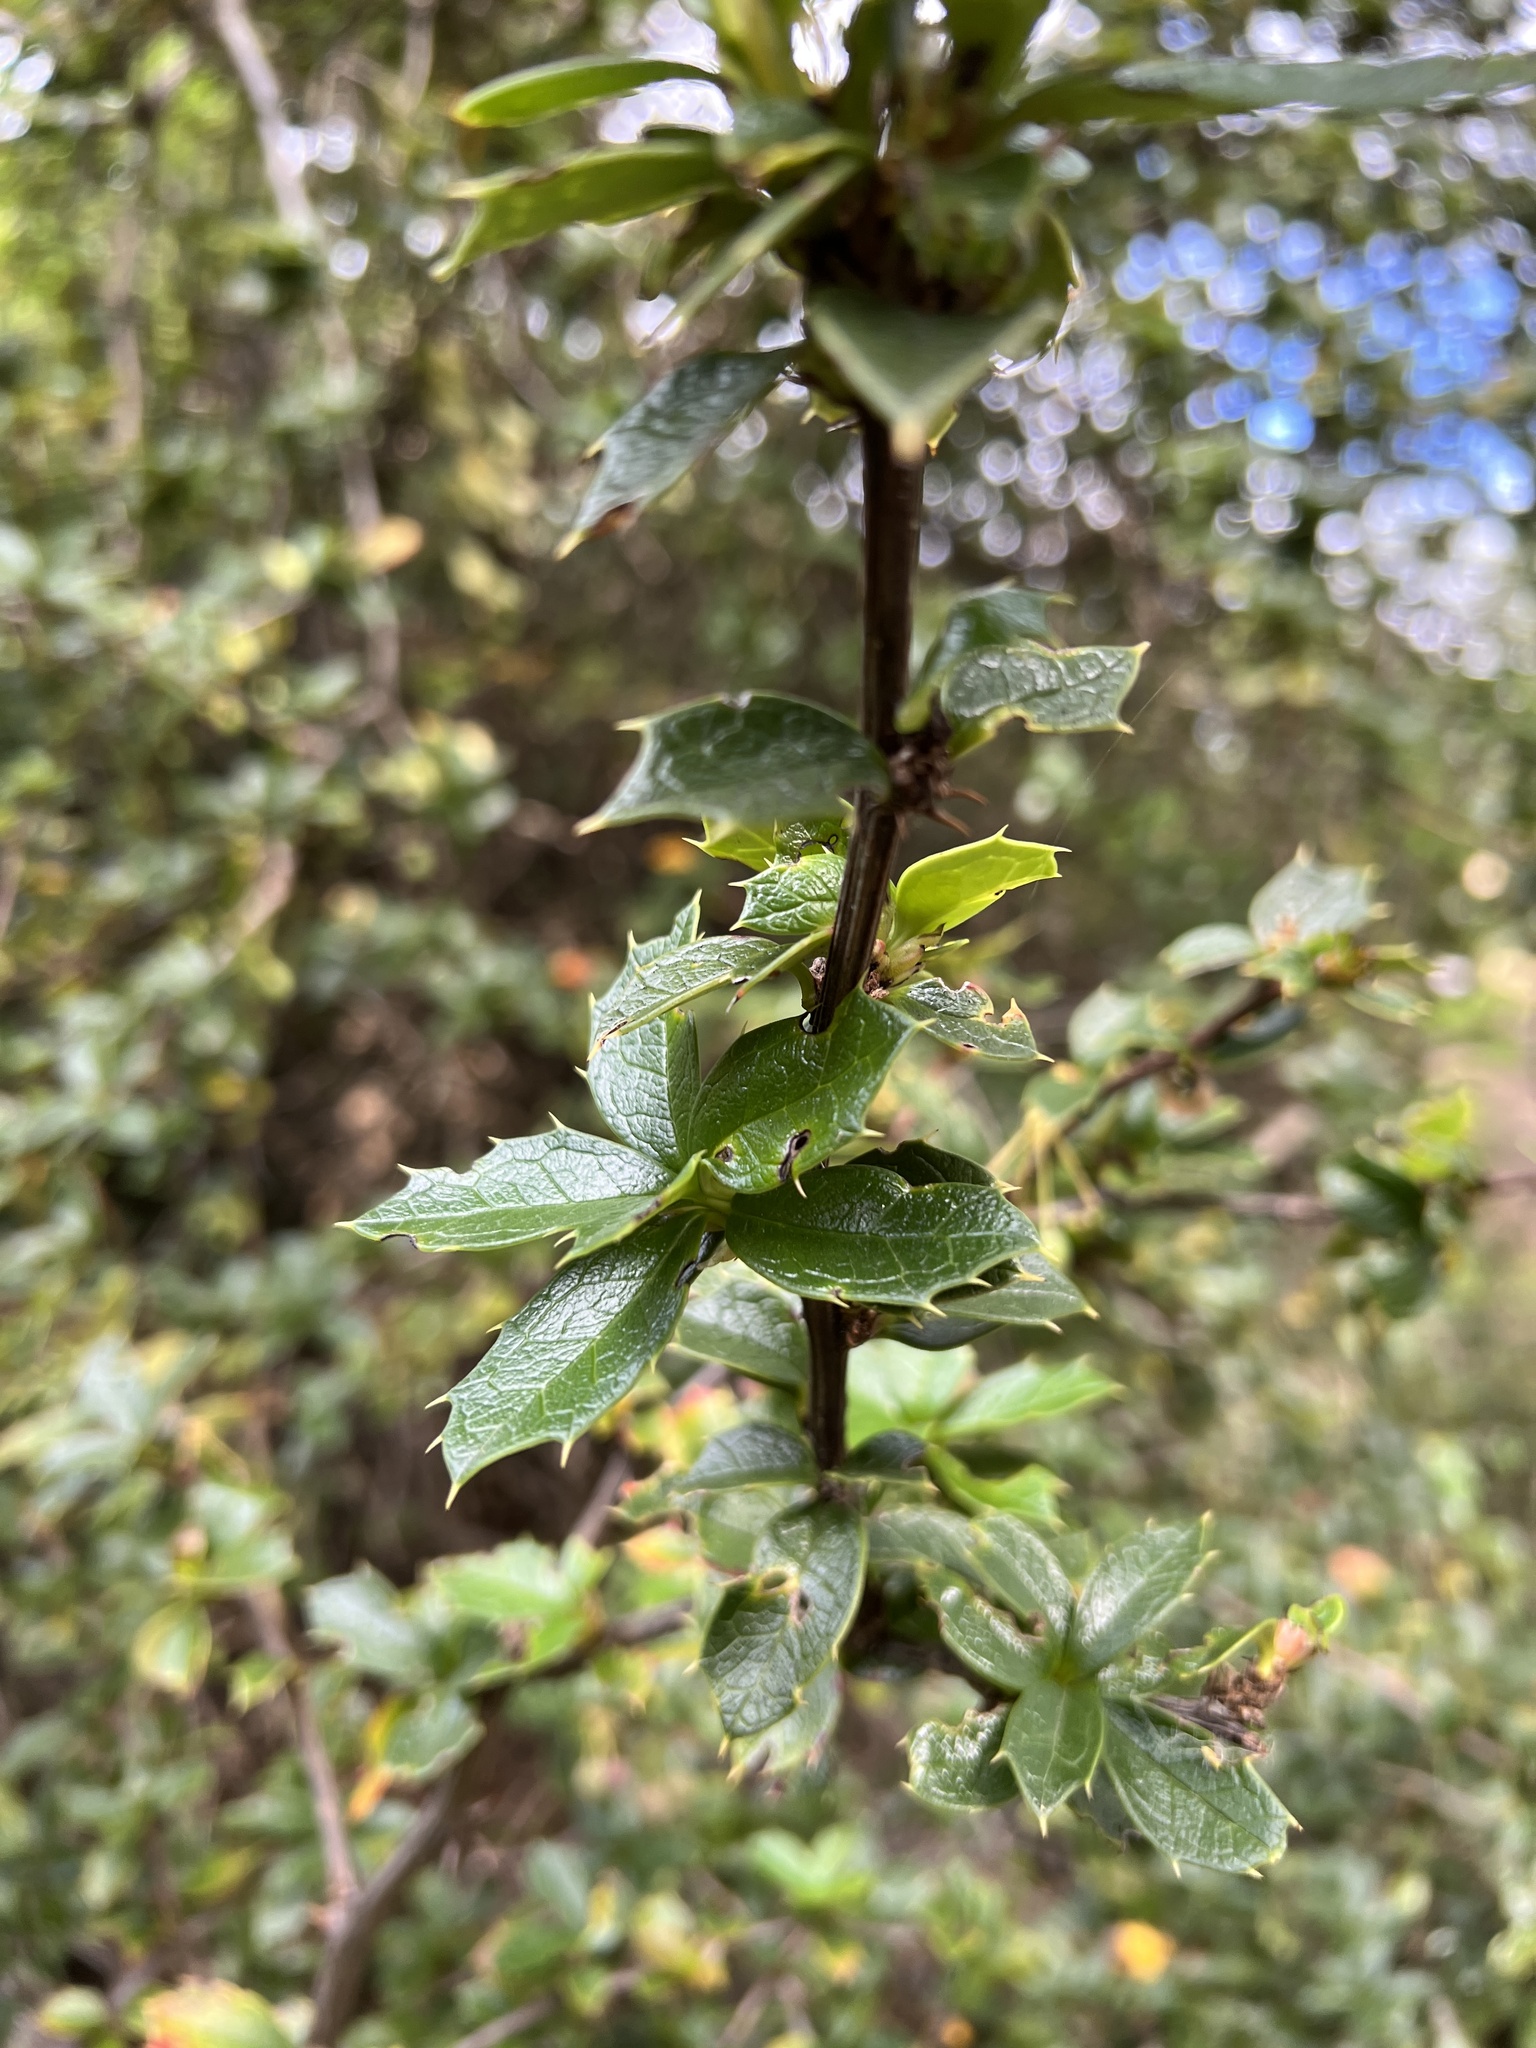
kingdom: Plantae
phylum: Tracheophyta
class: Magnoliopsida
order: Ranunculales
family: Berberidaceae
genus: Berberis
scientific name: Berberis ilicifolia
